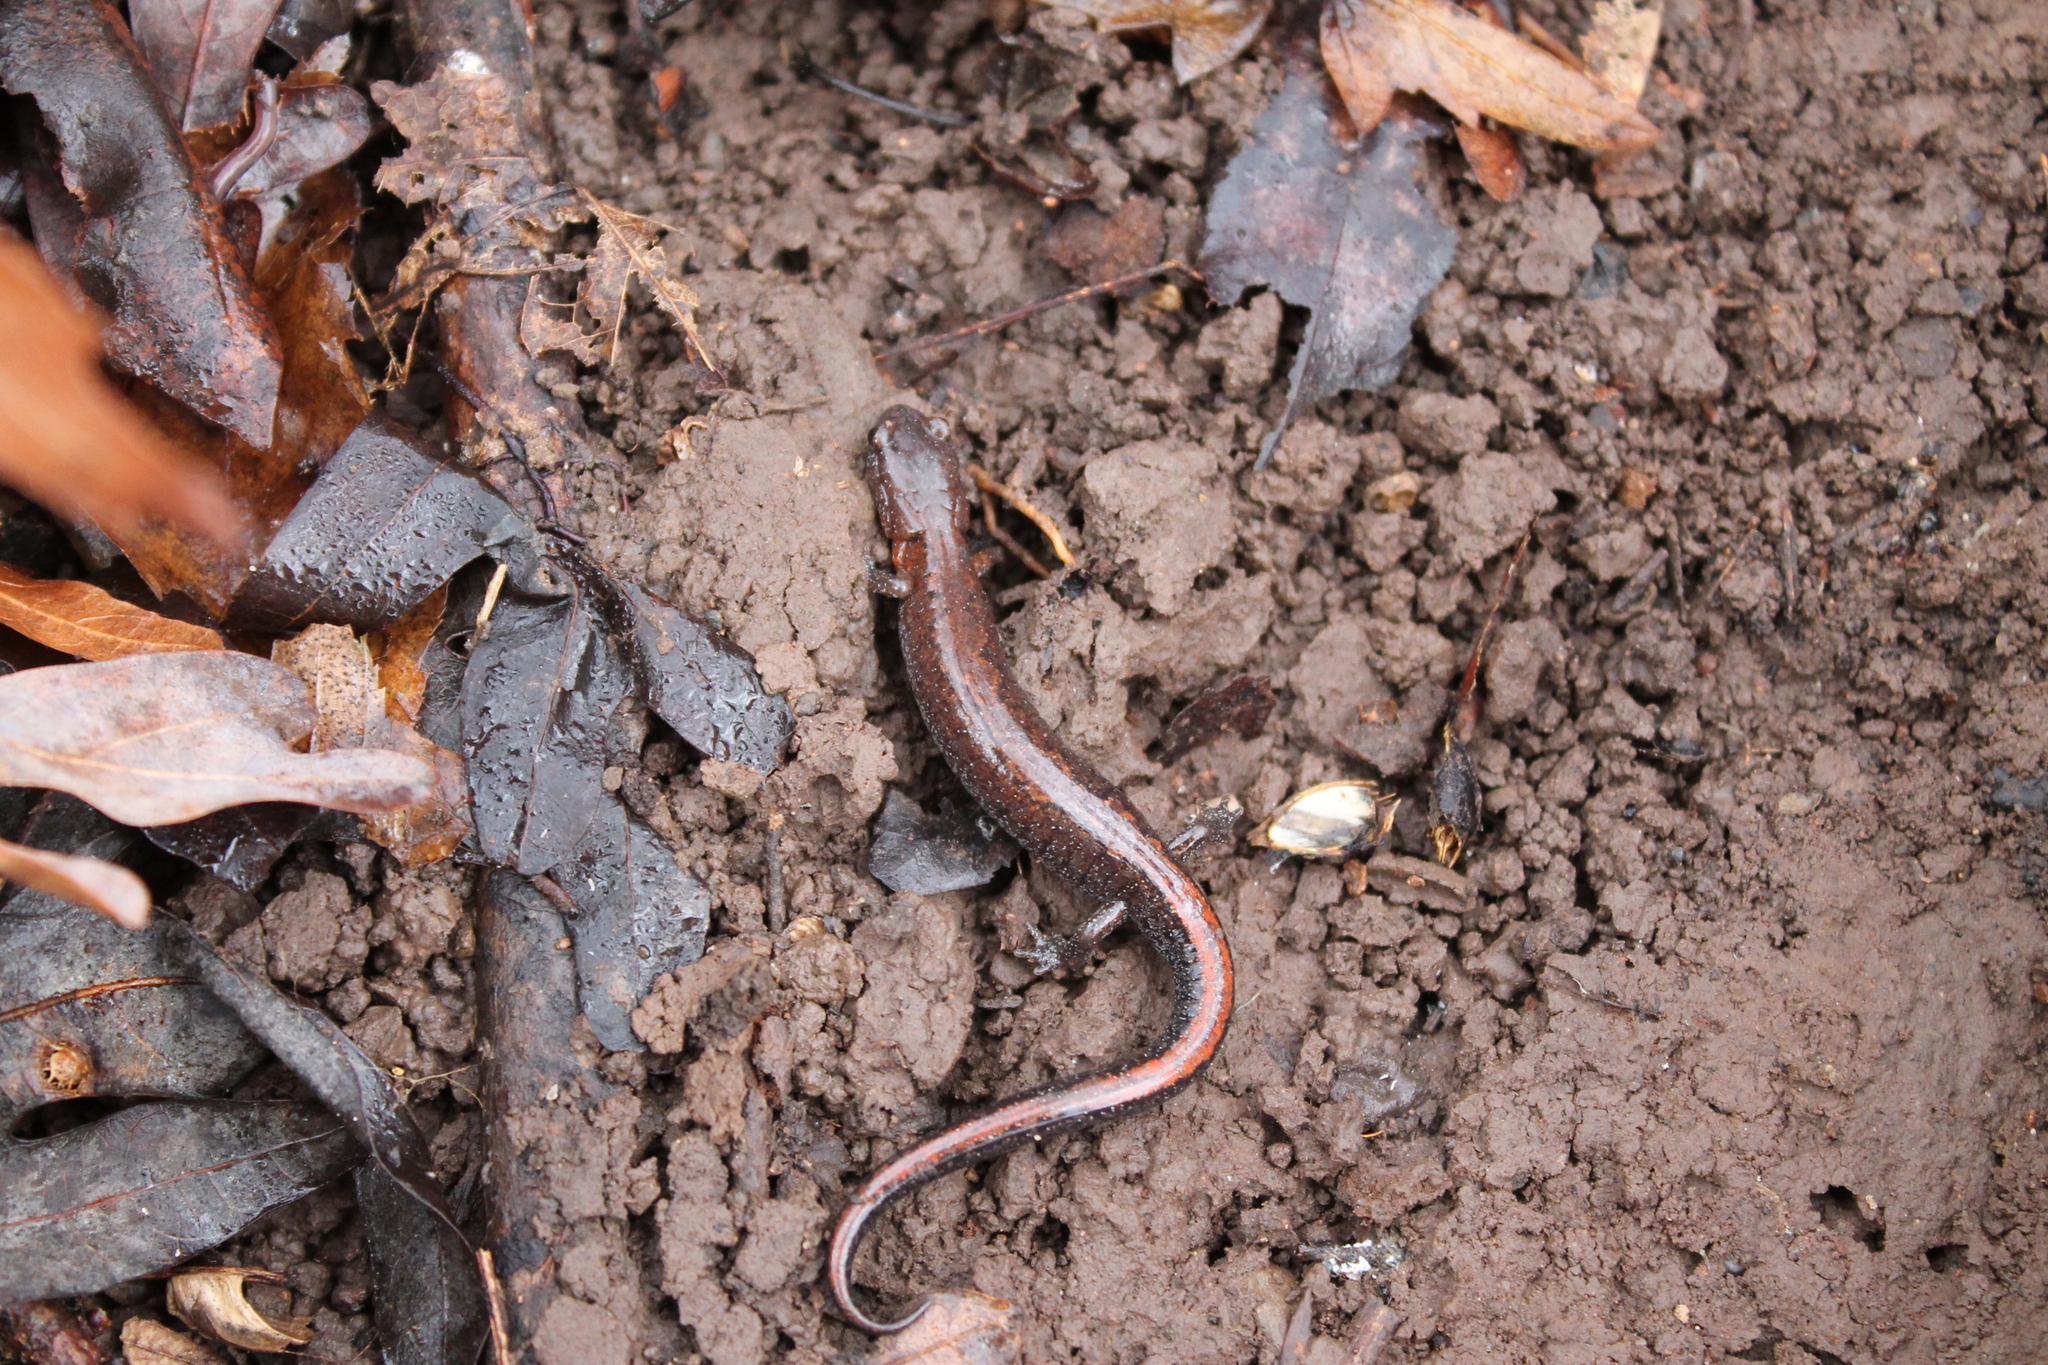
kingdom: Animalia
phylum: Chordata
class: Amphibia
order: Caudata
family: Plethodontidae
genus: Plethodon
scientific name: Plethodon dorsalis
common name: Northern zigzag salamander
